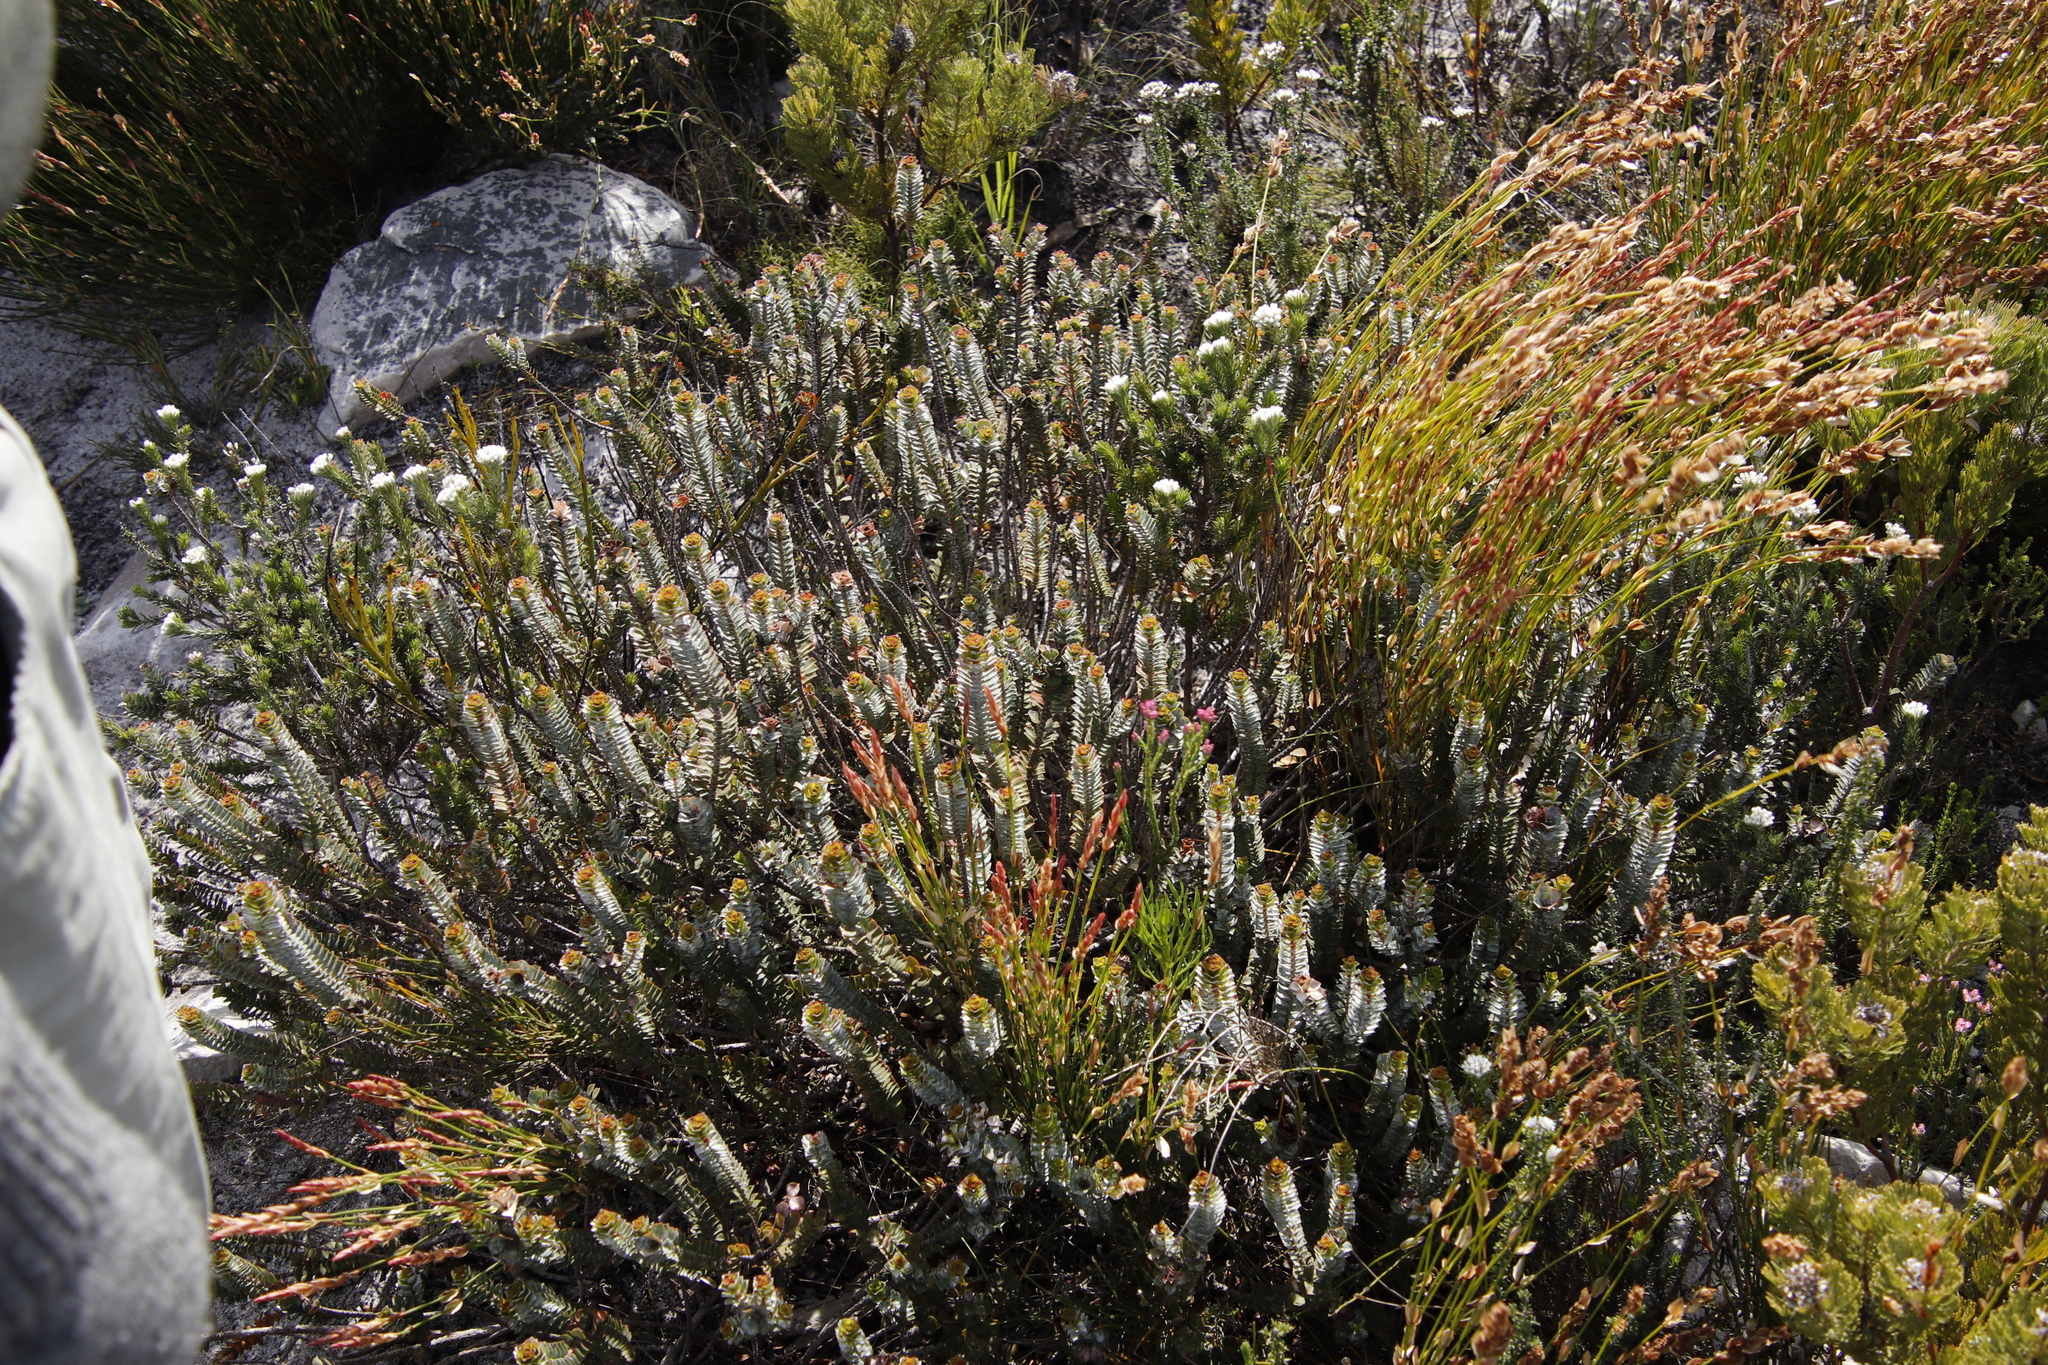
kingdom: Plantae
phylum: Tracheophyta
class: Magnoliopsida
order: Myrtales
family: Penaeaceae
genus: Saltera
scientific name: Saltera sarcocolla
